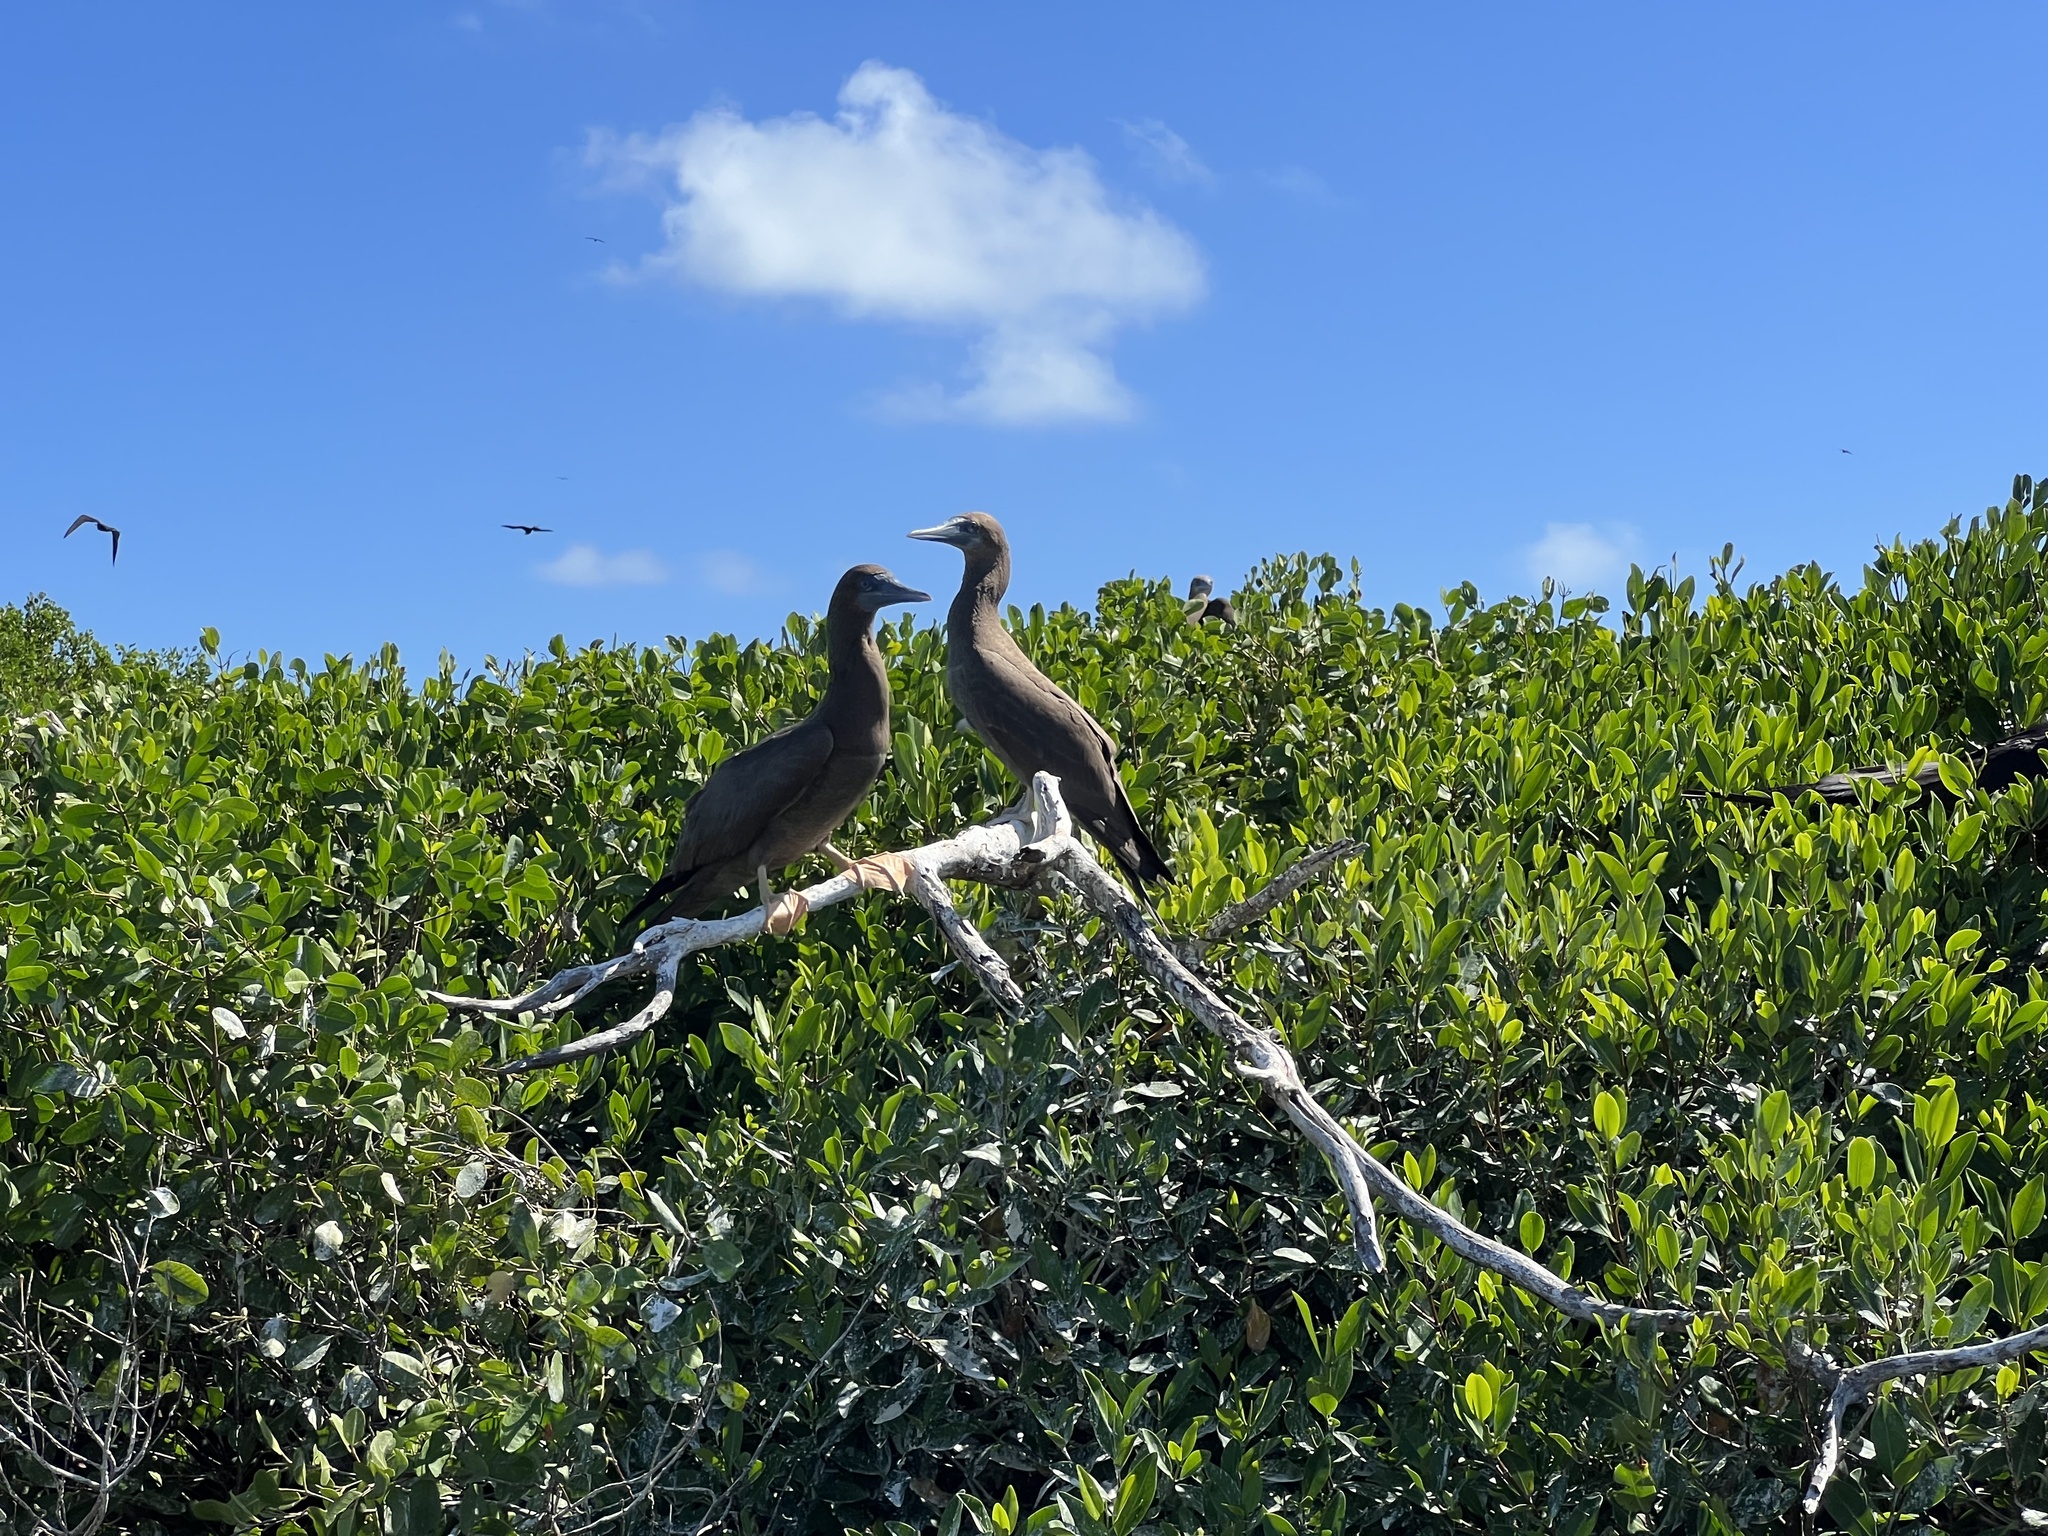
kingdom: Animalia
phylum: Chordata
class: Aves
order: Suliformes
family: Sulidae
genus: Sula
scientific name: Sula leucogaster
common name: Brown booby
